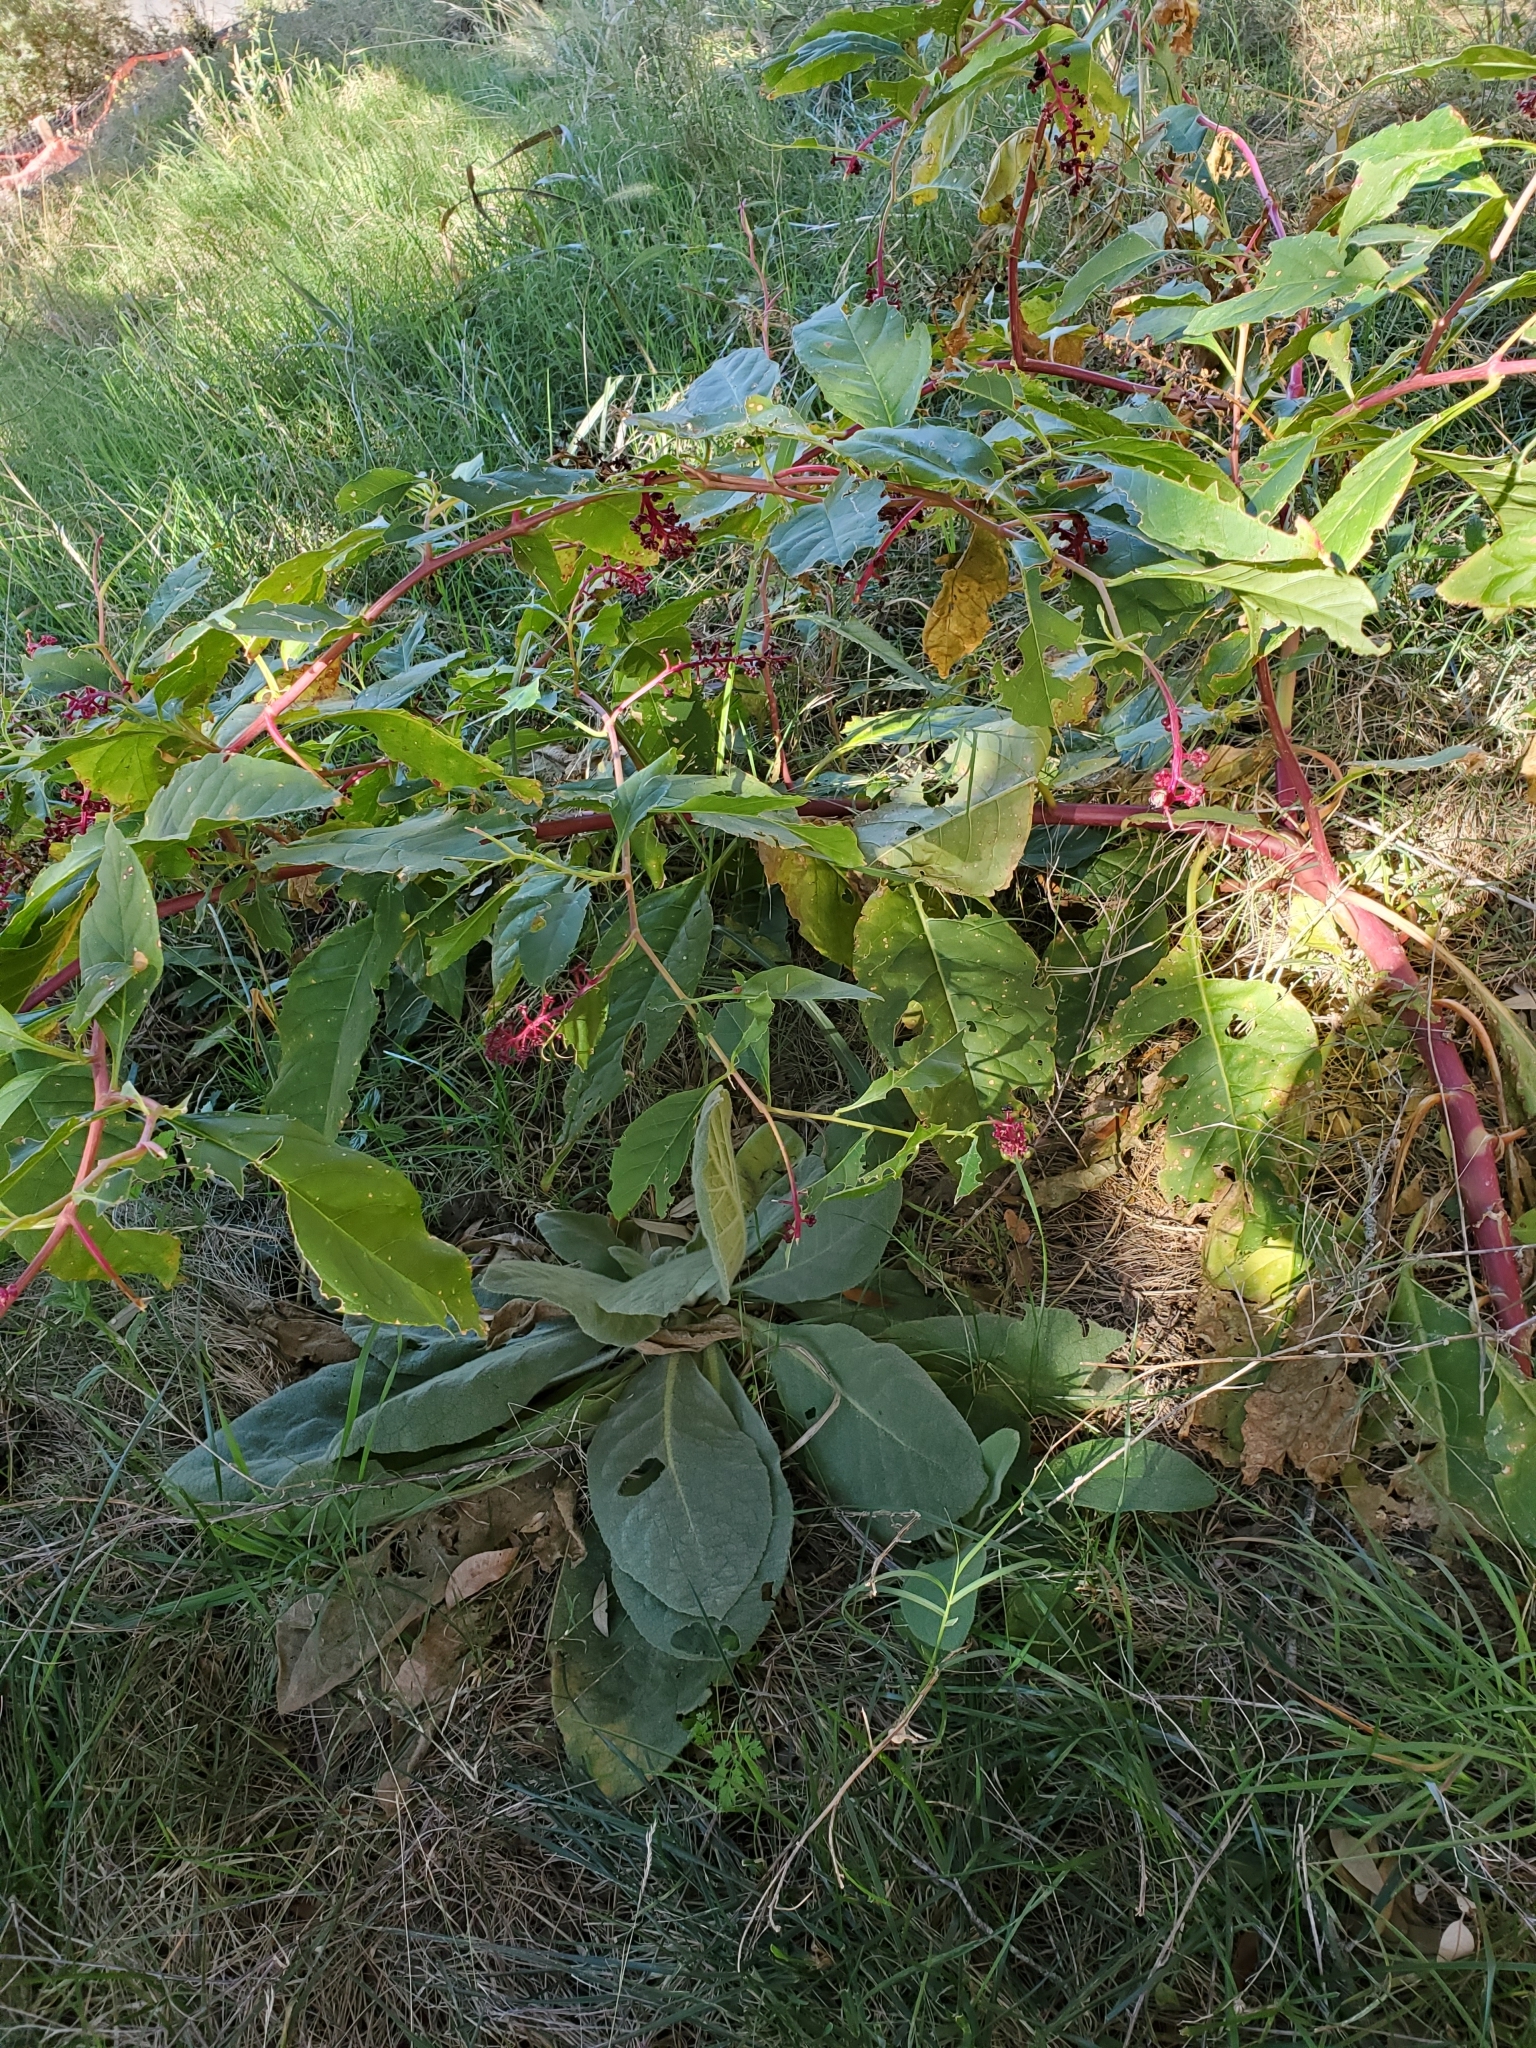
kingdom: Plantae
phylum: Tracheophyta
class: Magnoliopsida
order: Caryophyllales
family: Phytolaccaceae
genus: Phytolacca
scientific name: Phytolacca americana
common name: American pokeweed
